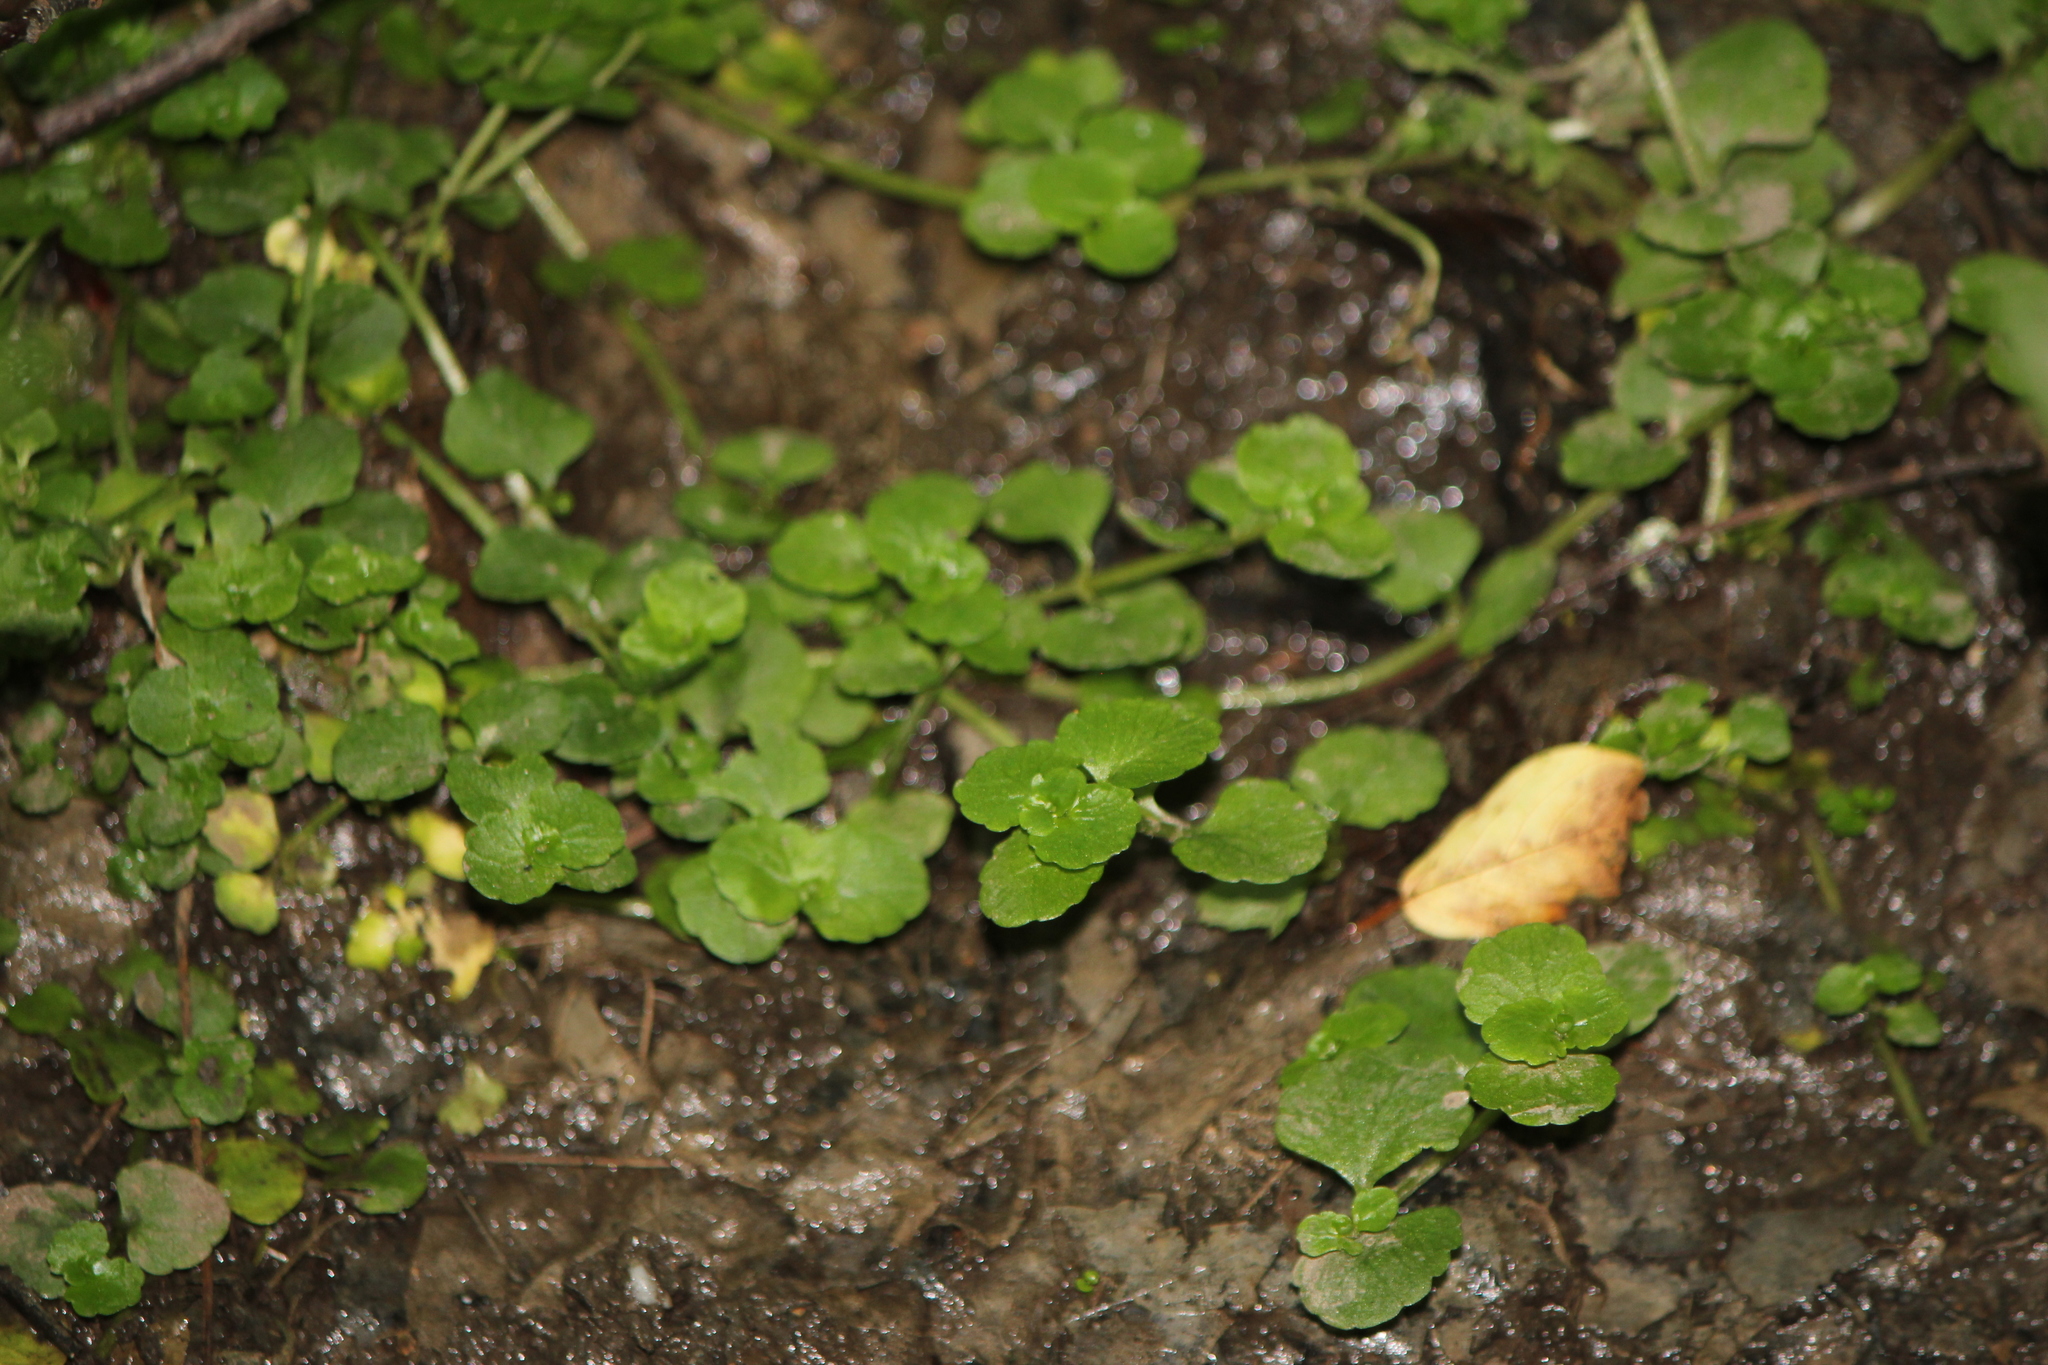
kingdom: Plantae
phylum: Tracheophyta
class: Magnoliopsida
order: Saxifragales
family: Saxifragaceae
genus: Chrysosplenium
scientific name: Chrysosplenium americanum
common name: American golden-saxifrage
